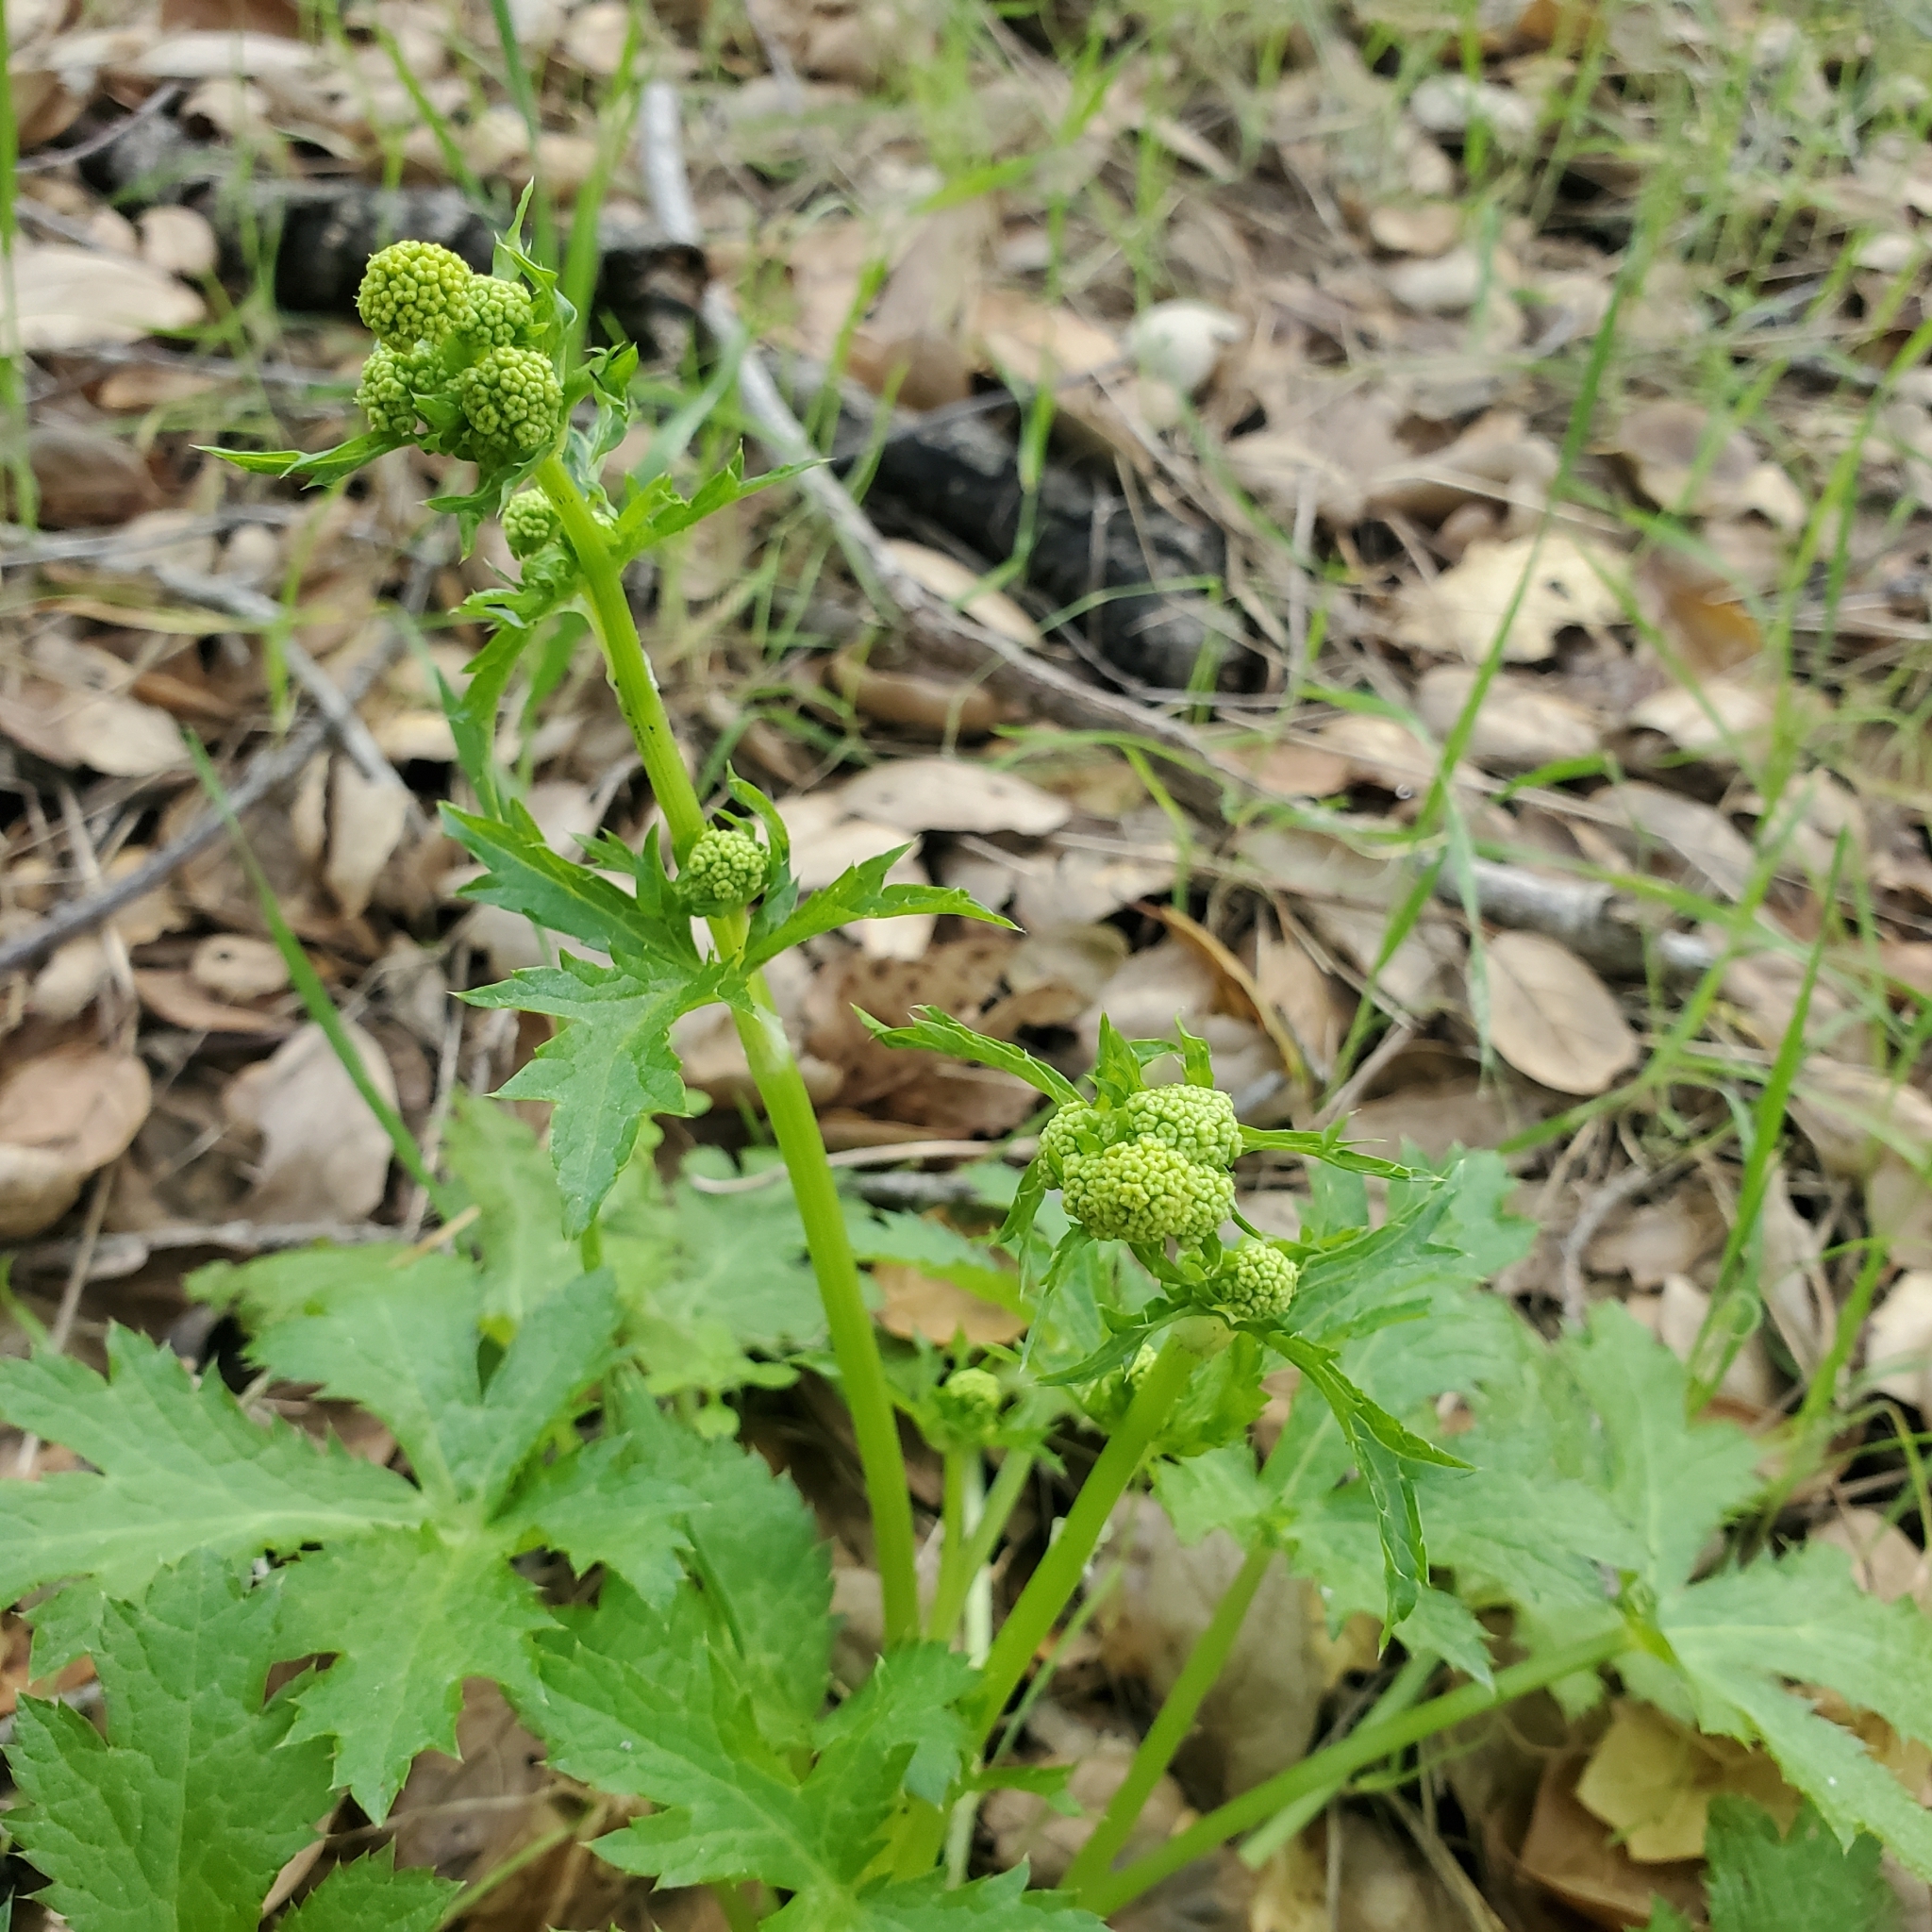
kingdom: Plantae
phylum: Tracheophyta
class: Magnoliopsida
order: Apiales
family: Apiaceae
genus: Sanicula
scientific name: Sanicula crassicaulis
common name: Western snakeroot
